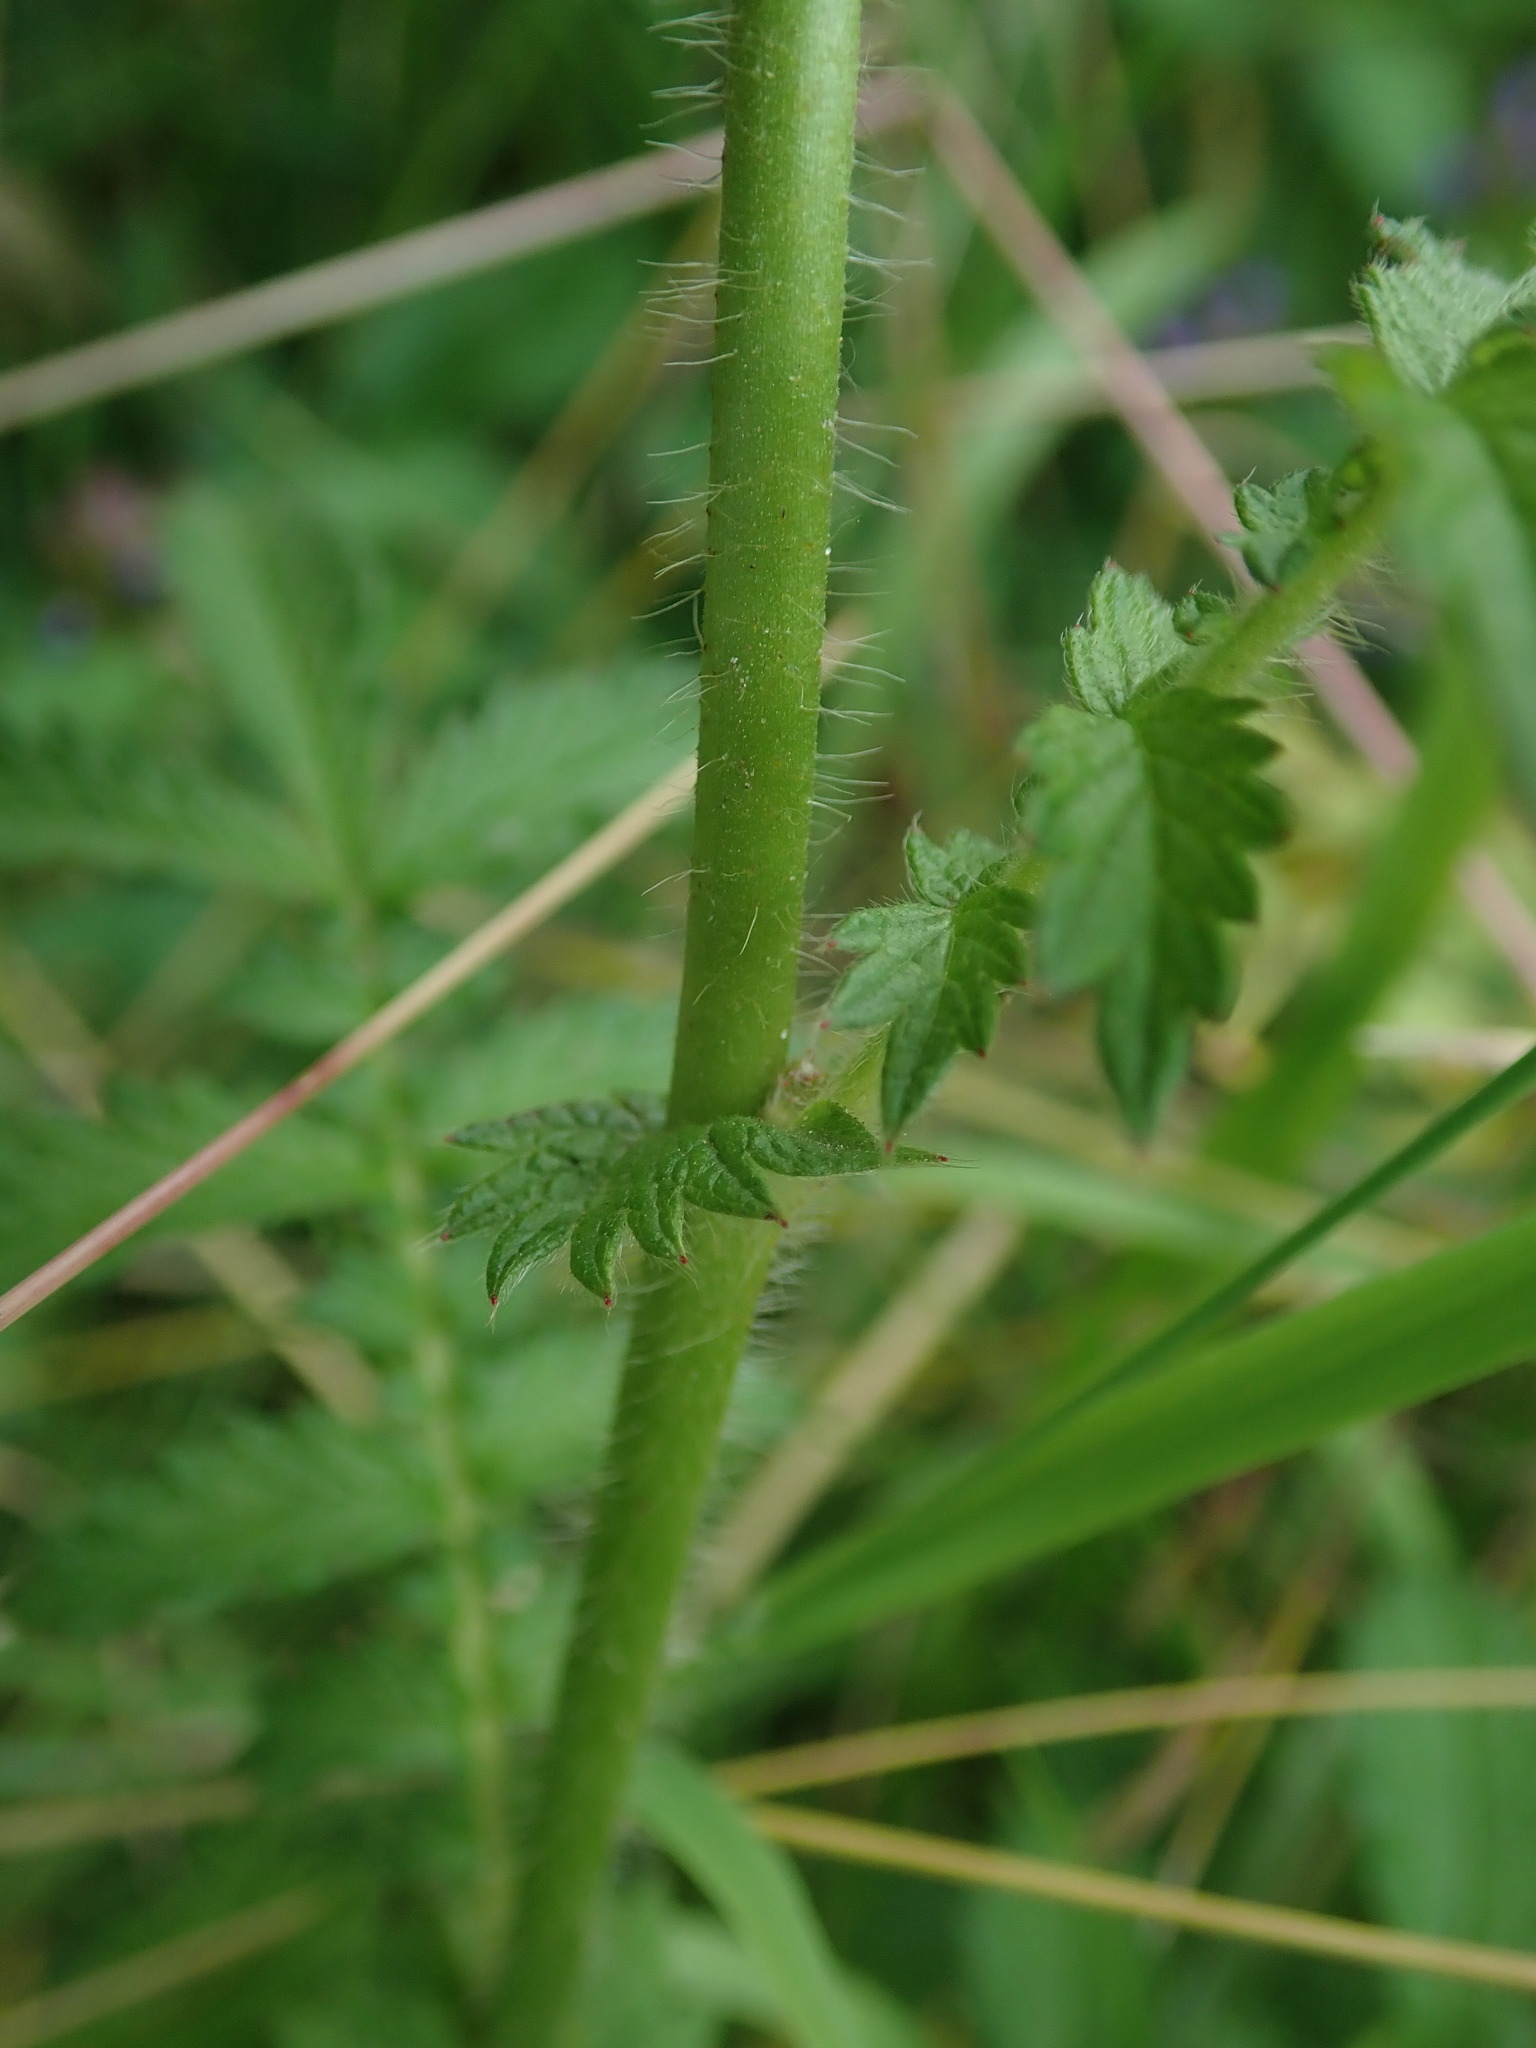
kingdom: Plantae
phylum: Tracheophyta
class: Magnoliopsida
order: Rosales
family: Rosaceae
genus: Agrimonia
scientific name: Agrimonia eupatoria
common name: Agrimony
